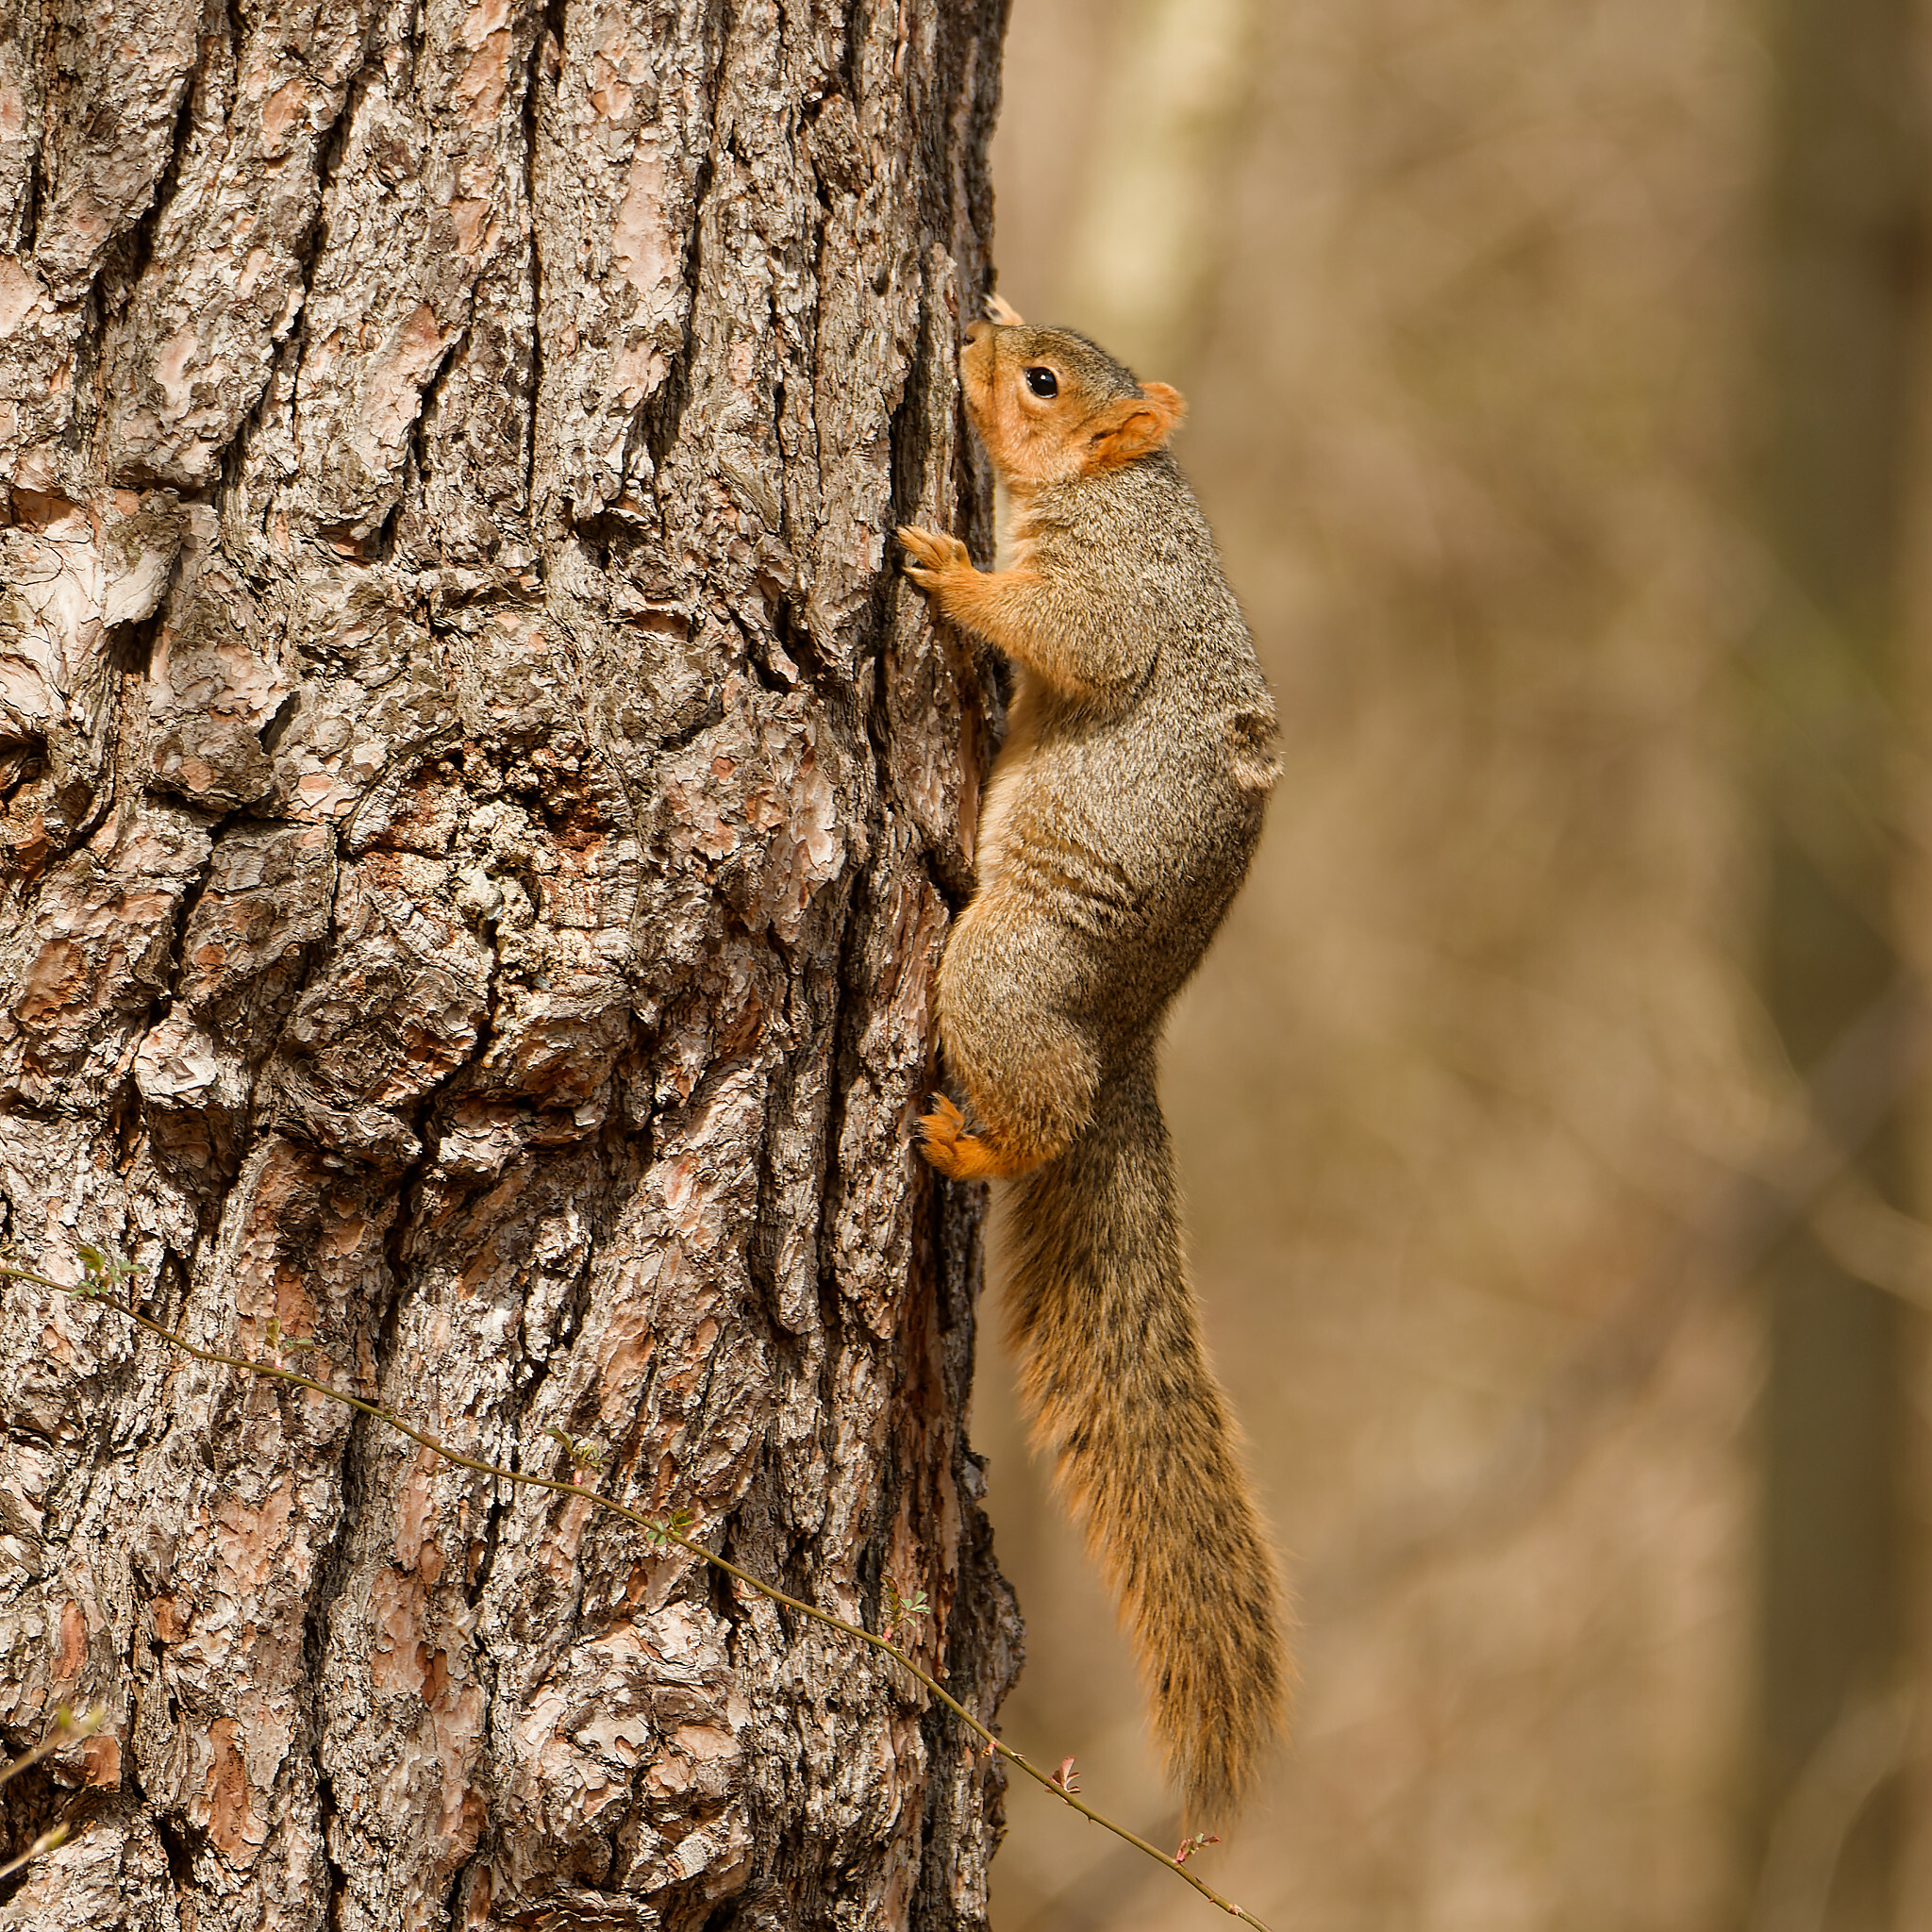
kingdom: Animalia
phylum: Chordata
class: Mammalia
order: Rodentia
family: Sciuridae
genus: Sciurus
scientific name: Sciurus niger
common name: Fox squirrel
